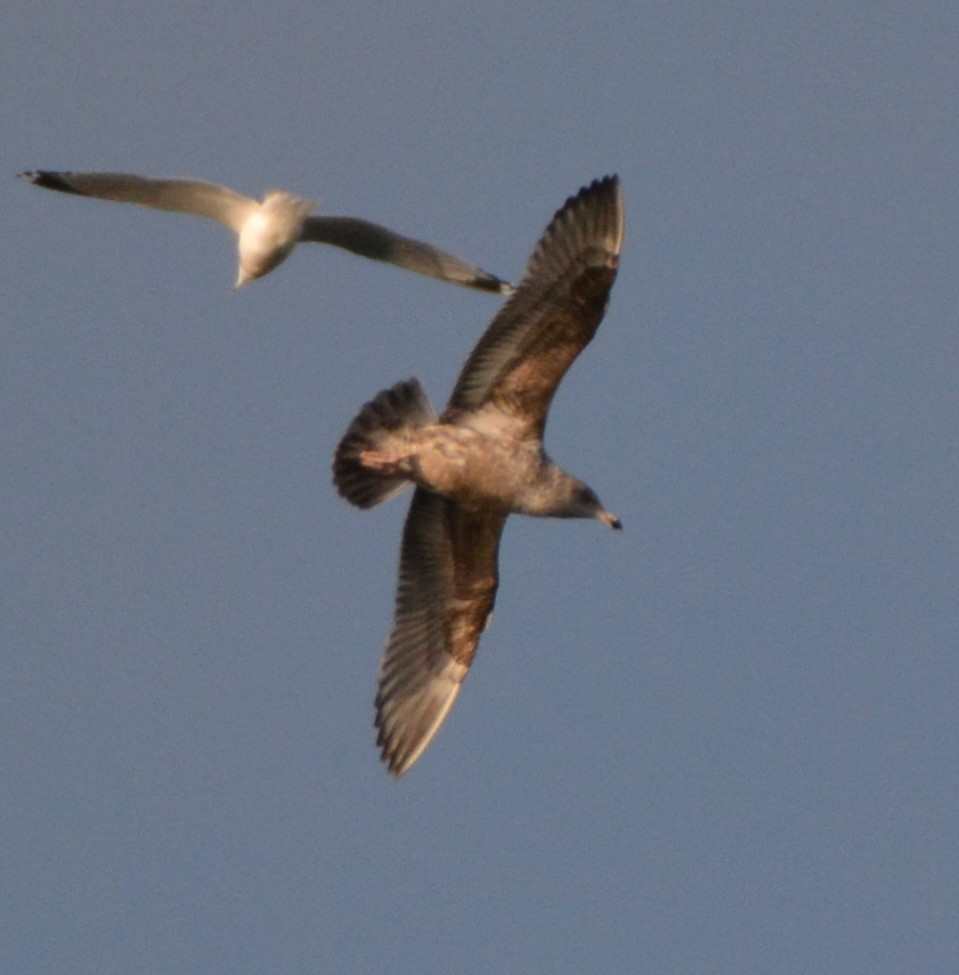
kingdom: Animalia
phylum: Chordata
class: Aves
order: Charadriiformes
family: Laridae
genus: Larus
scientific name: Larus argentatus
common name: Herring gull
